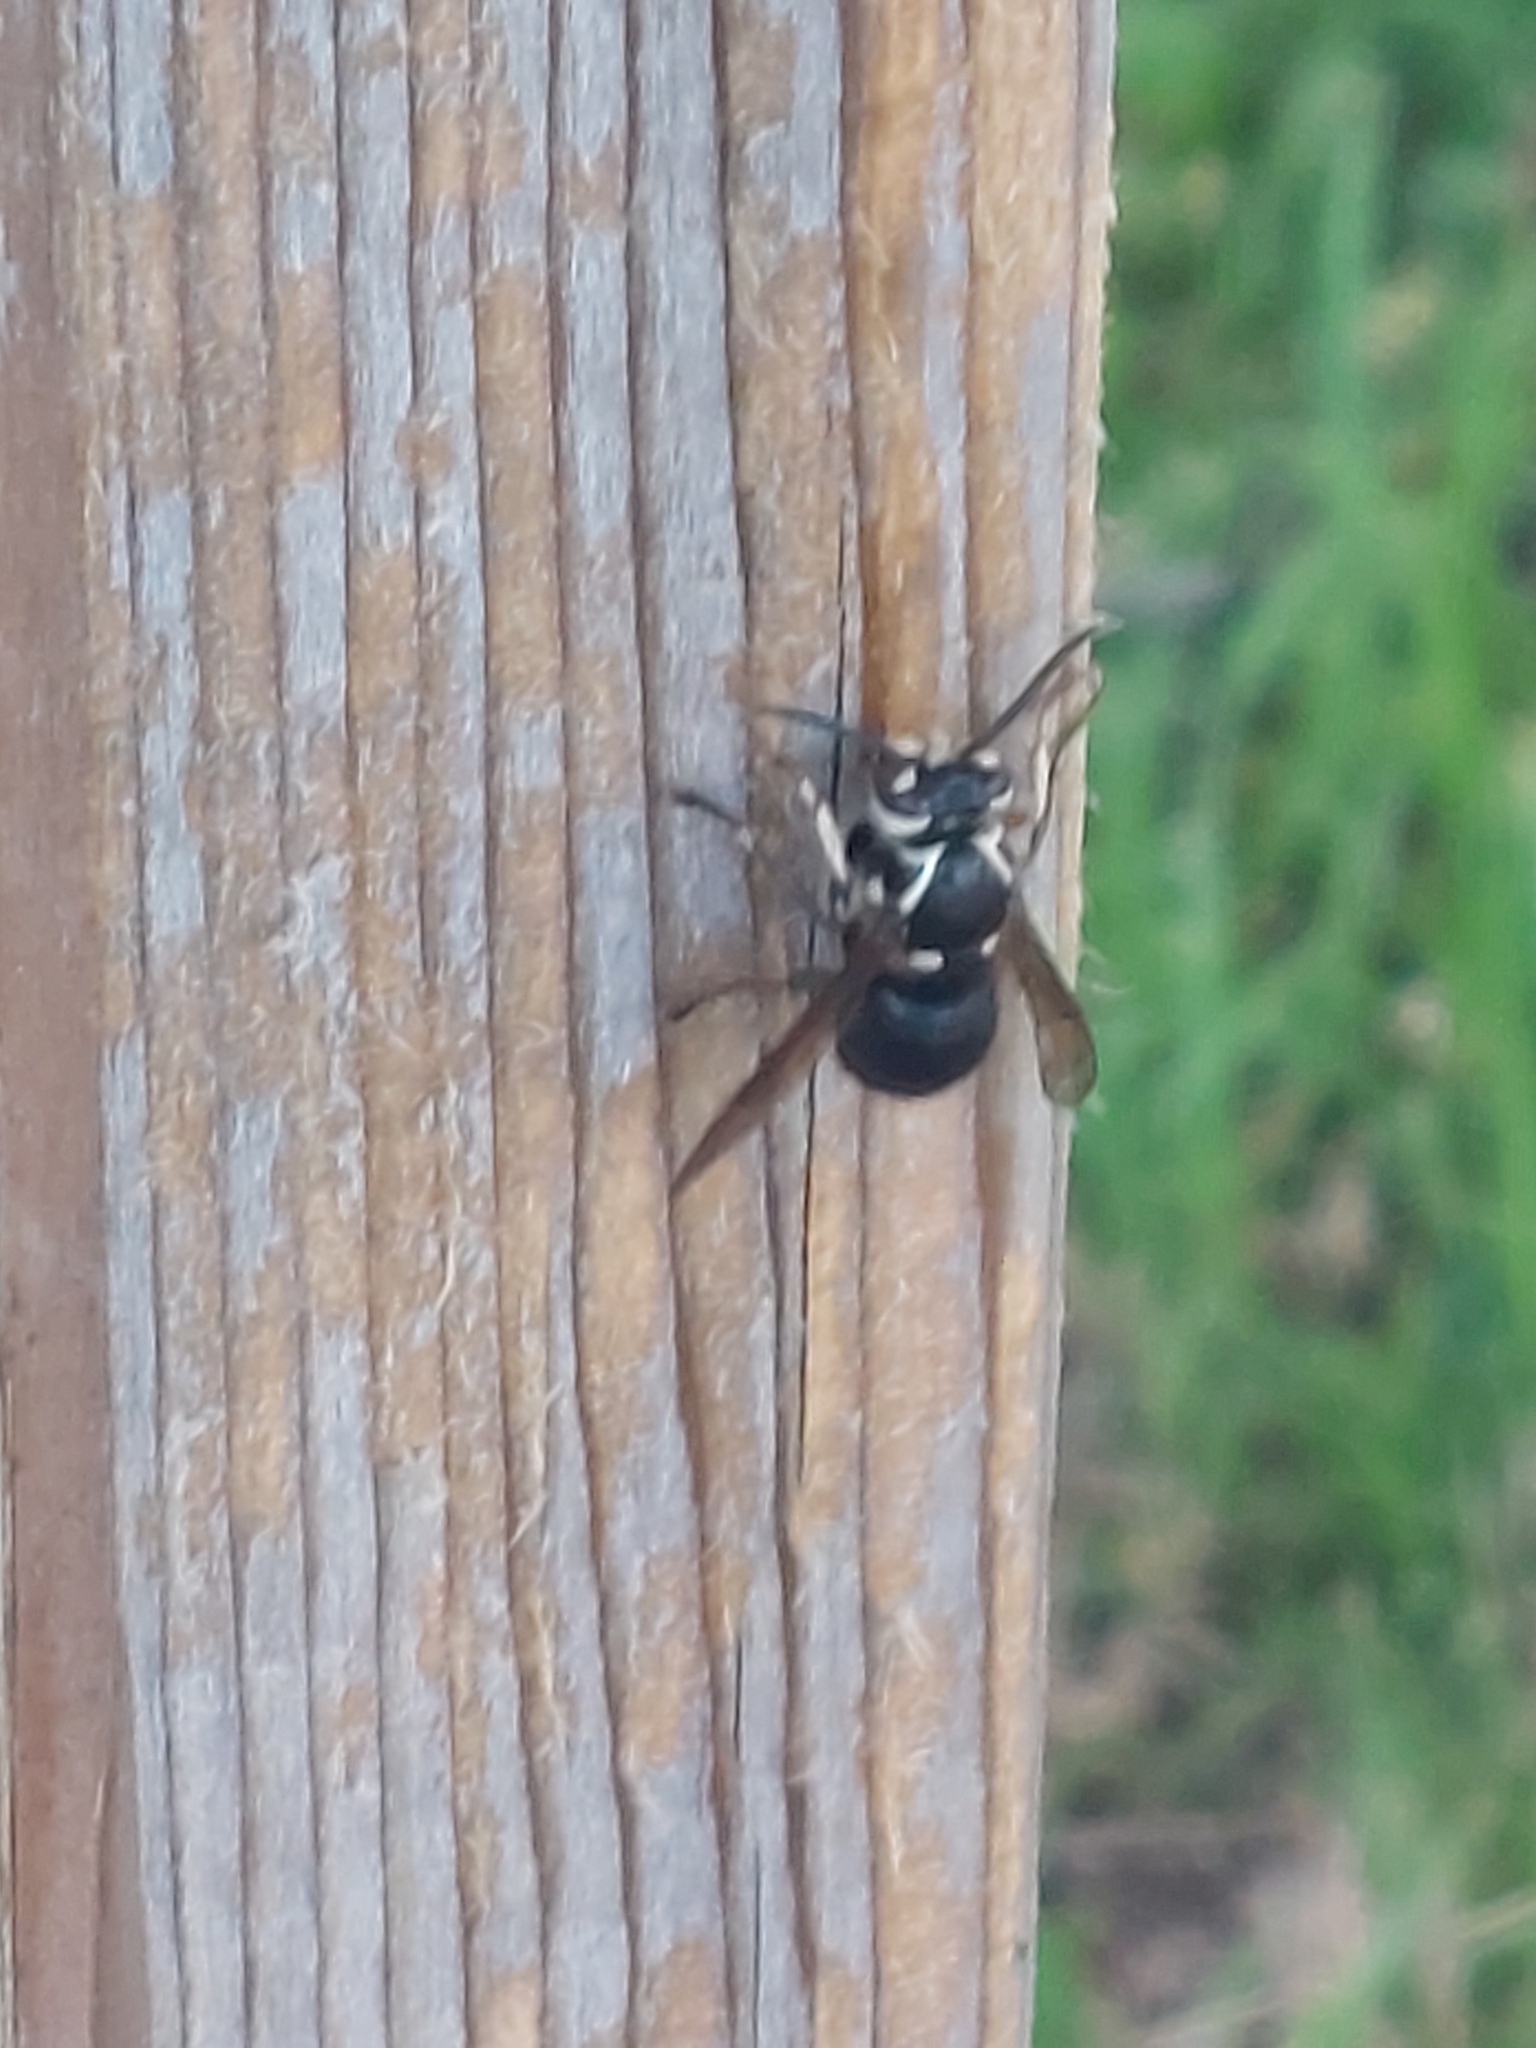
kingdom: Animalia
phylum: Arthropoda
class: Insecta
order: Hymenoptera
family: Vespidae
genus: Dolichovespula
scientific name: Dolichovespula maculata
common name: Bald-faced hornet
